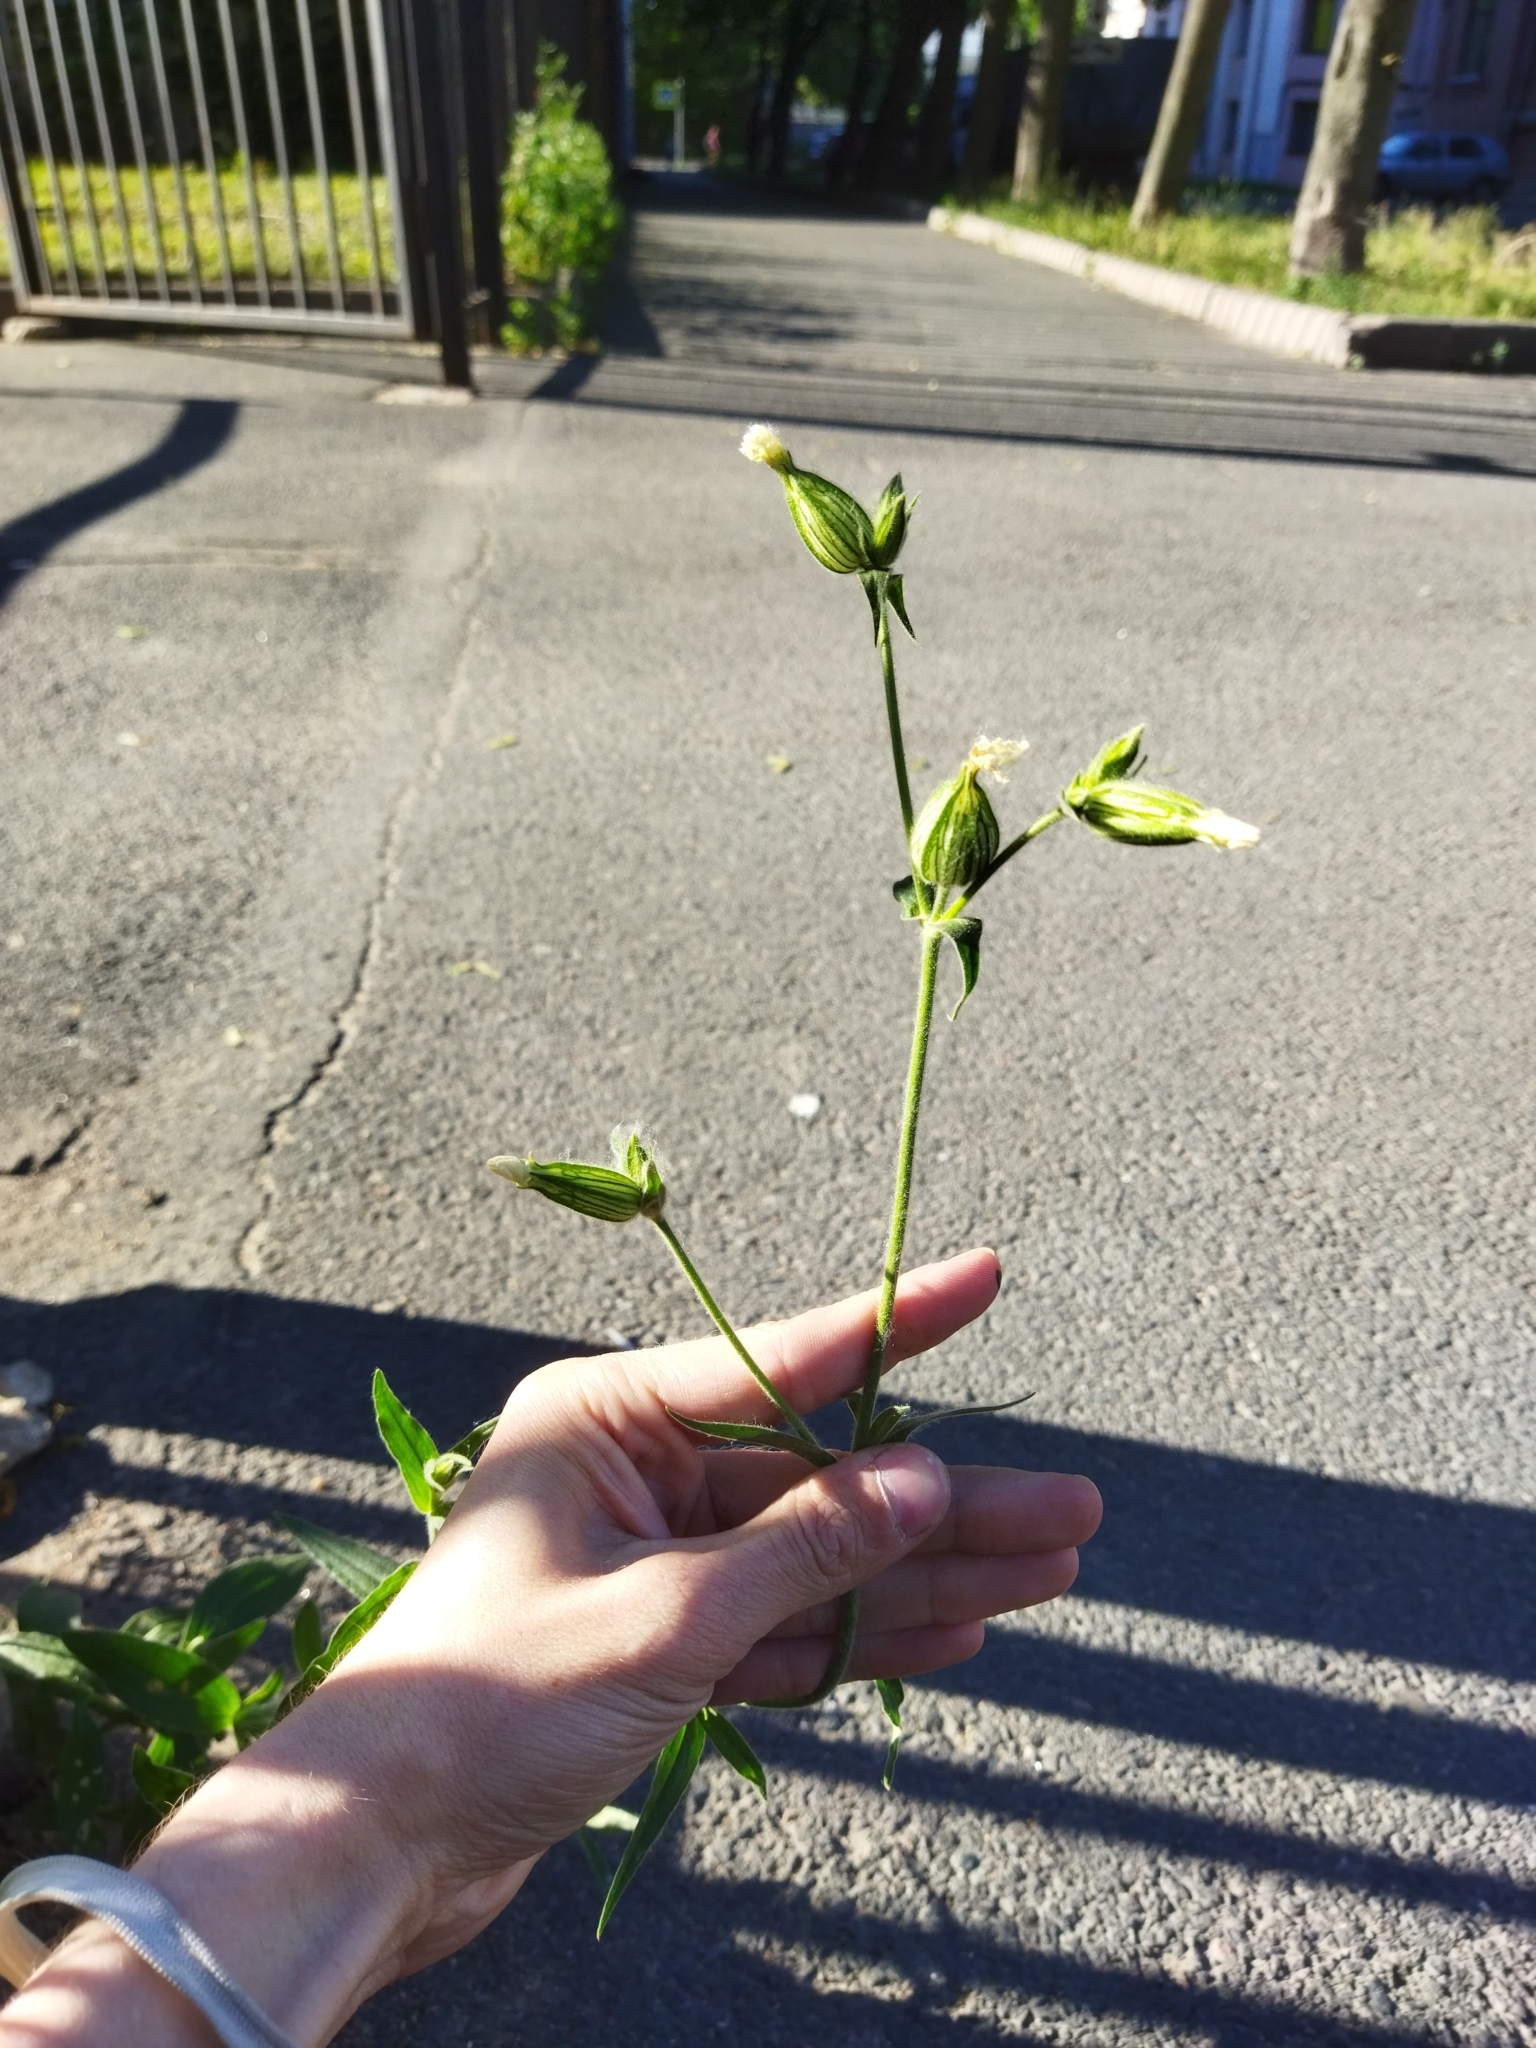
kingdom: Plantae
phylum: Tracheophyta
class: Magnoliopsida
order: Caryophyllales
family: Caryophyllaceae
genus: Silene
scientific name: Silene latifolia
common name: White campion
